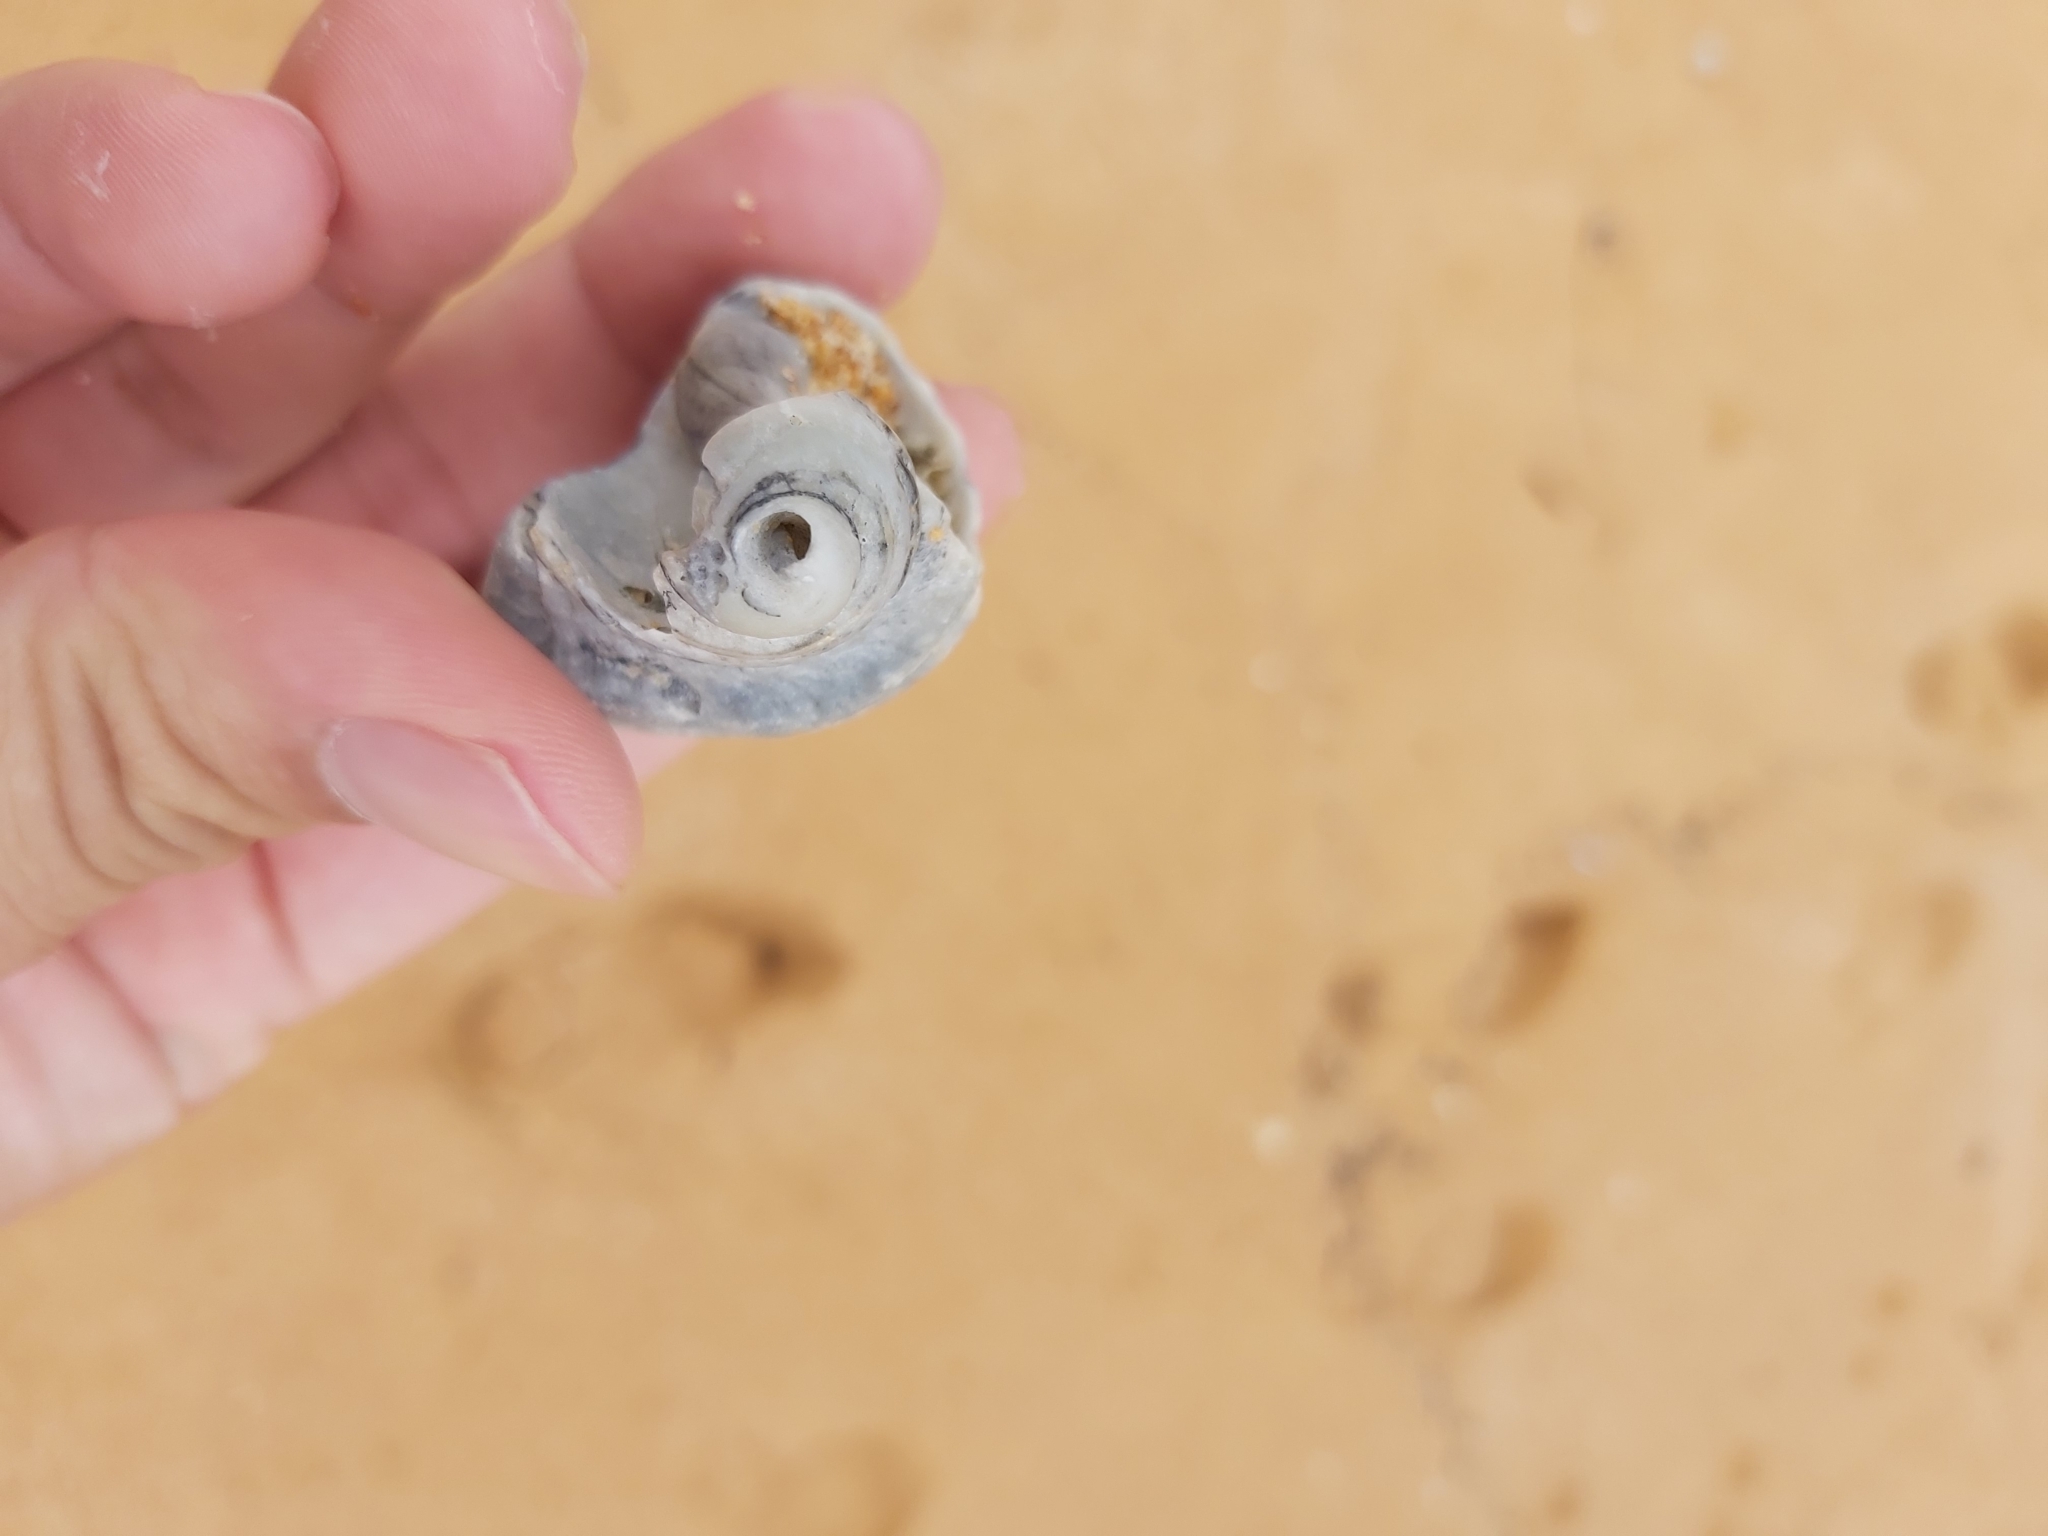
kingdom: Animalia
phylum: Mollusca
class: Gastropoda
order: Neogastropoda
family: Muricidae
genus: Dicathais
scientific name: Dicathais orbita
